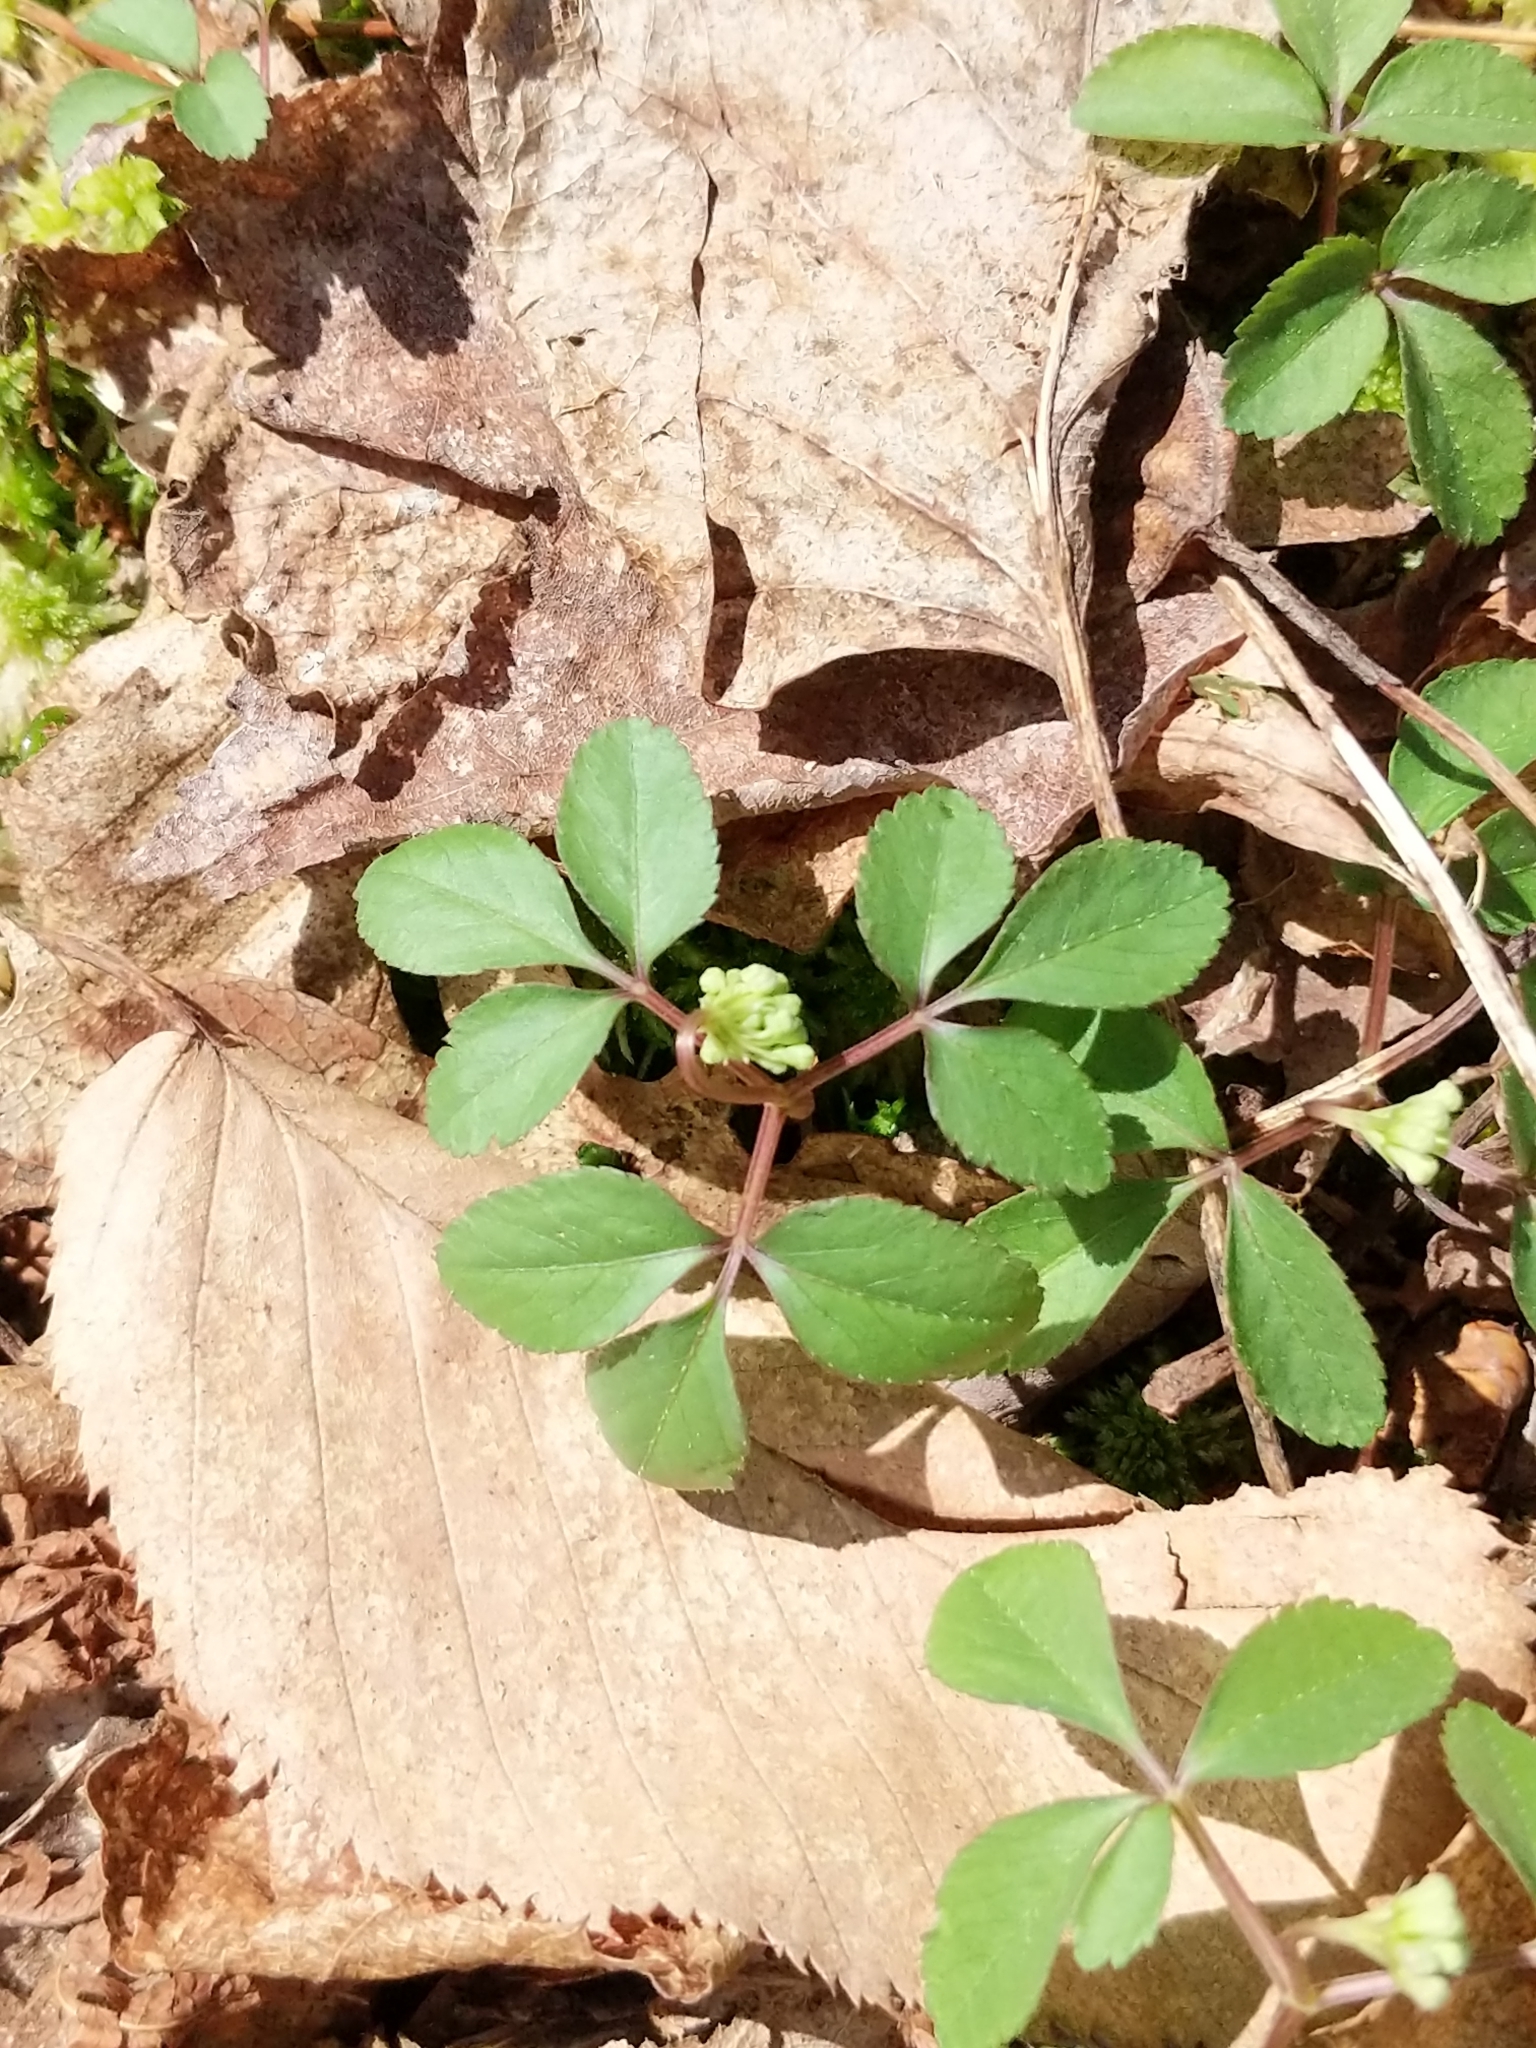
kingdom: Plantae
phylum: Tracheophyta
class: Magnoliopsida
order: Apiales
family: Araliaceae
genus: Panax
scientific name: Panax trifolius
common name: Dwarf ginseng
